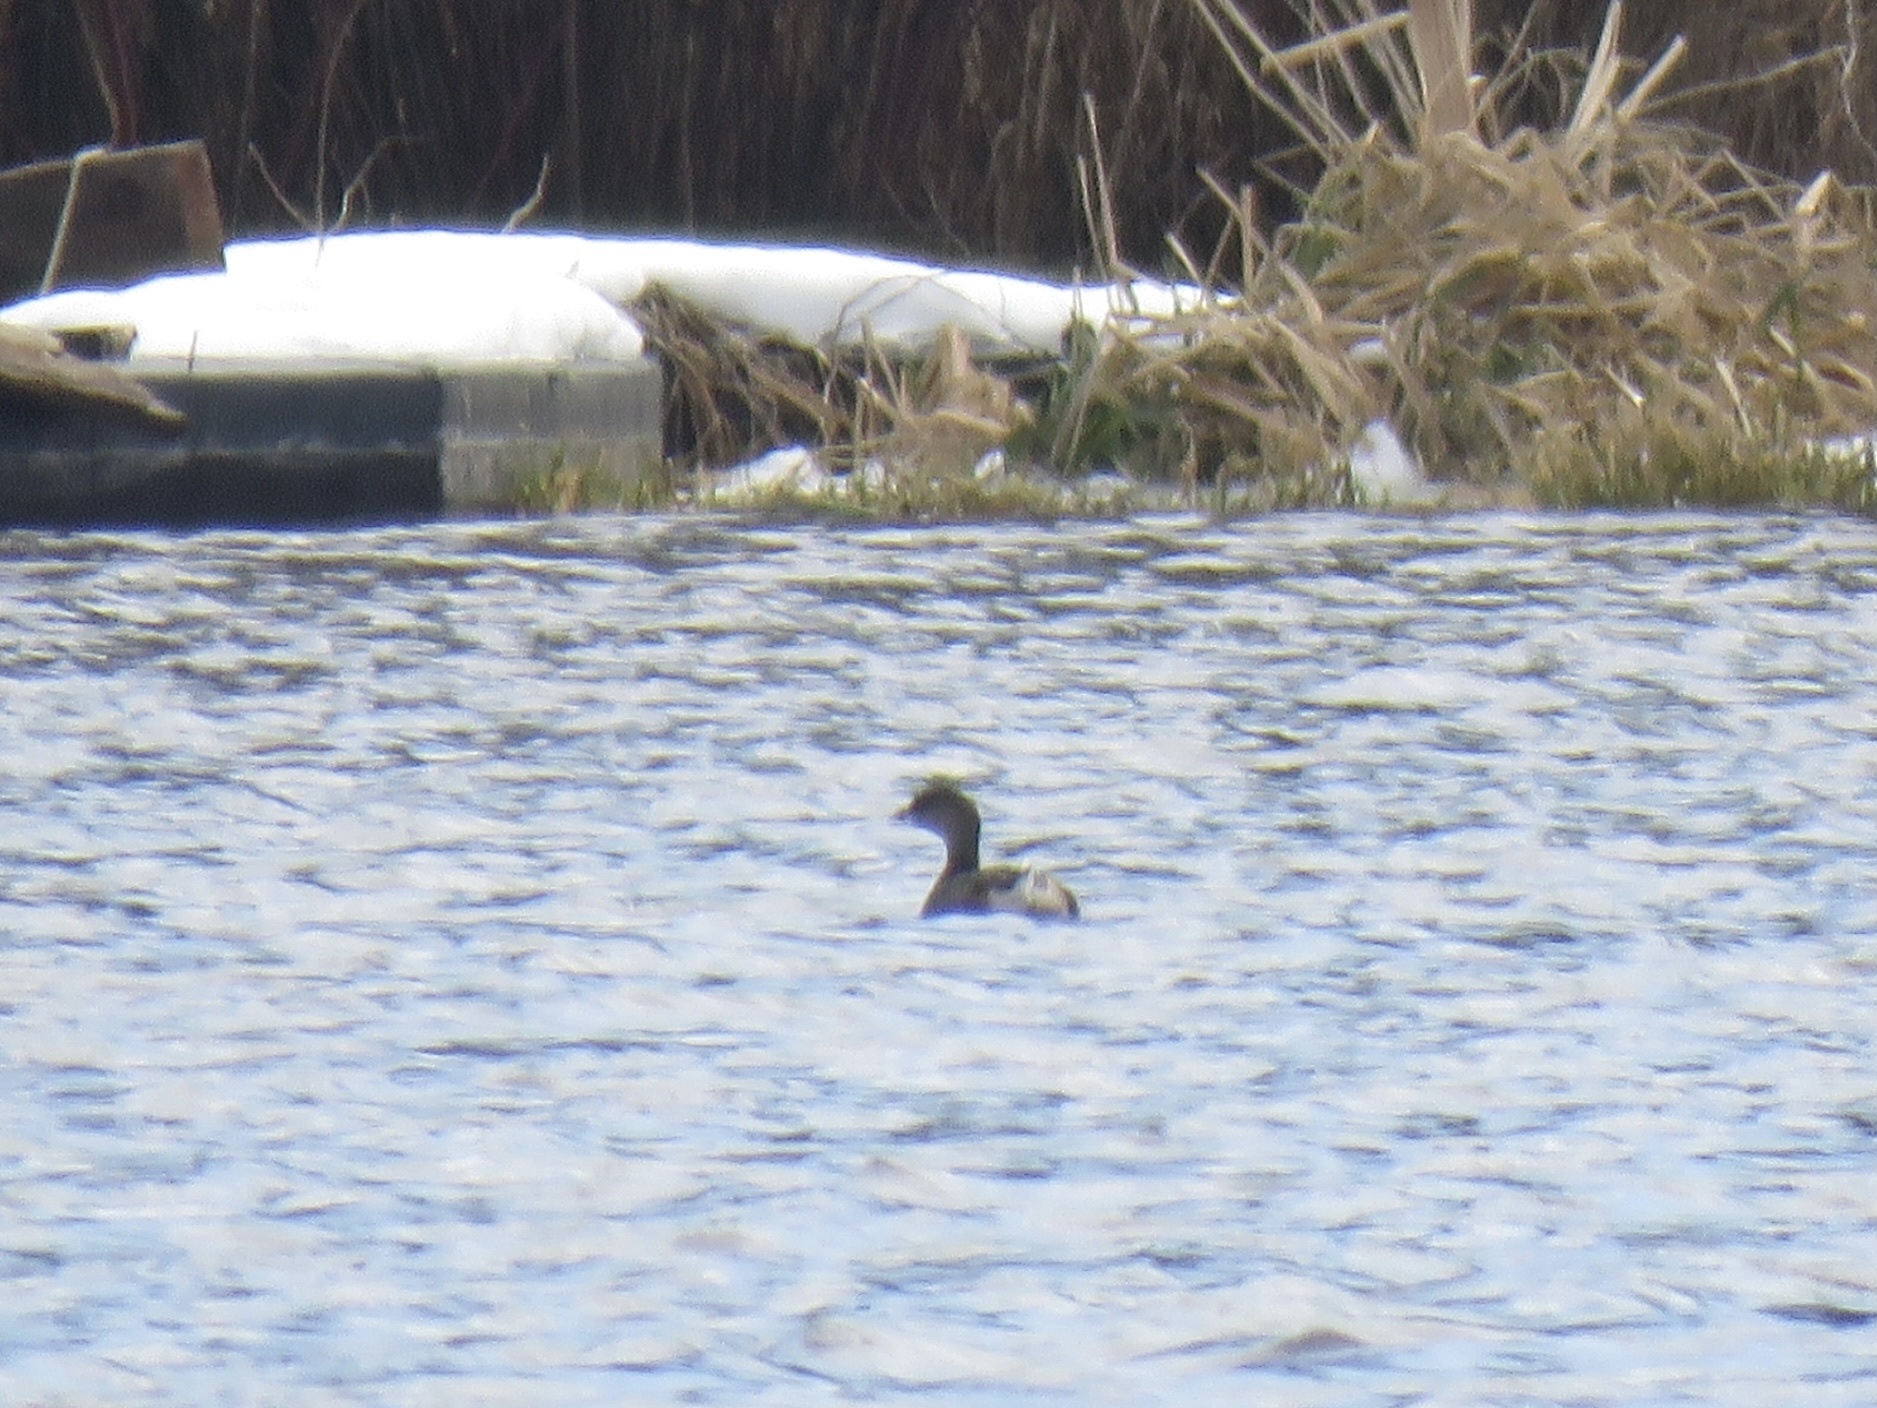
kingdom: Animalia
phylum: Chordata
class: Aves
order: Podicipediformes
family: Podicipedidae
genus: Podilymbus
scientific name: Podilymbus podiceps
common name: Pied-billed grebe
